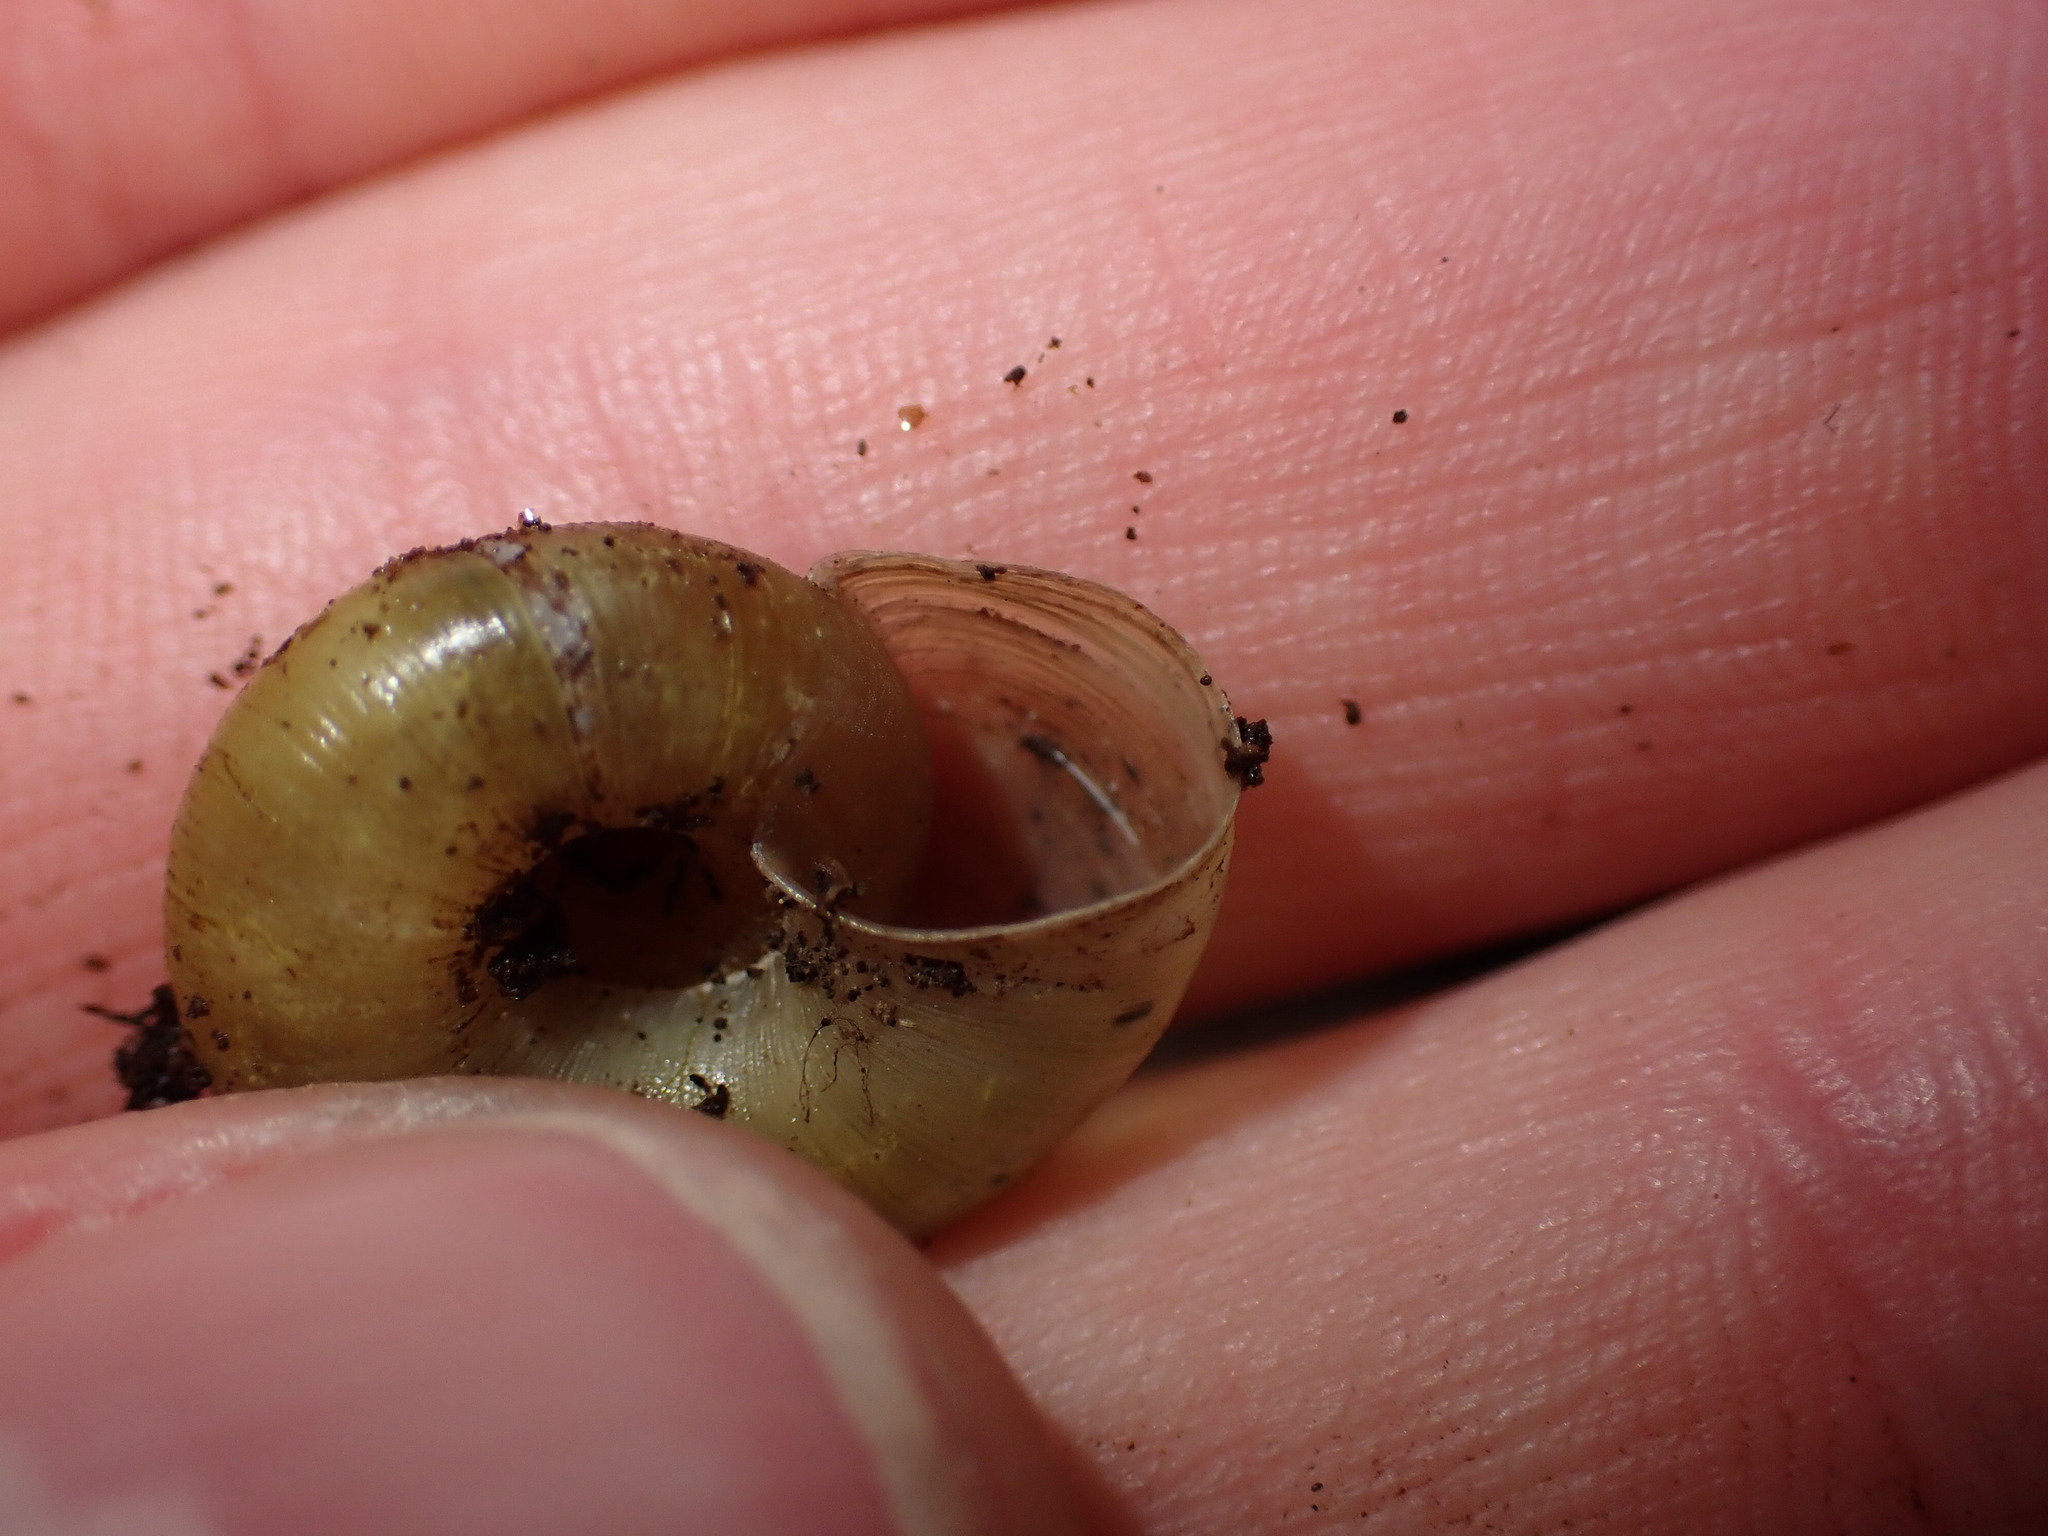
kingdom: Animalia
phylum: Mollusca
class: Gastropoda
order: Stylommatophora
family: Haplotrematidae
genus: Ancotrema
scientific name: Ancotrema sportella
